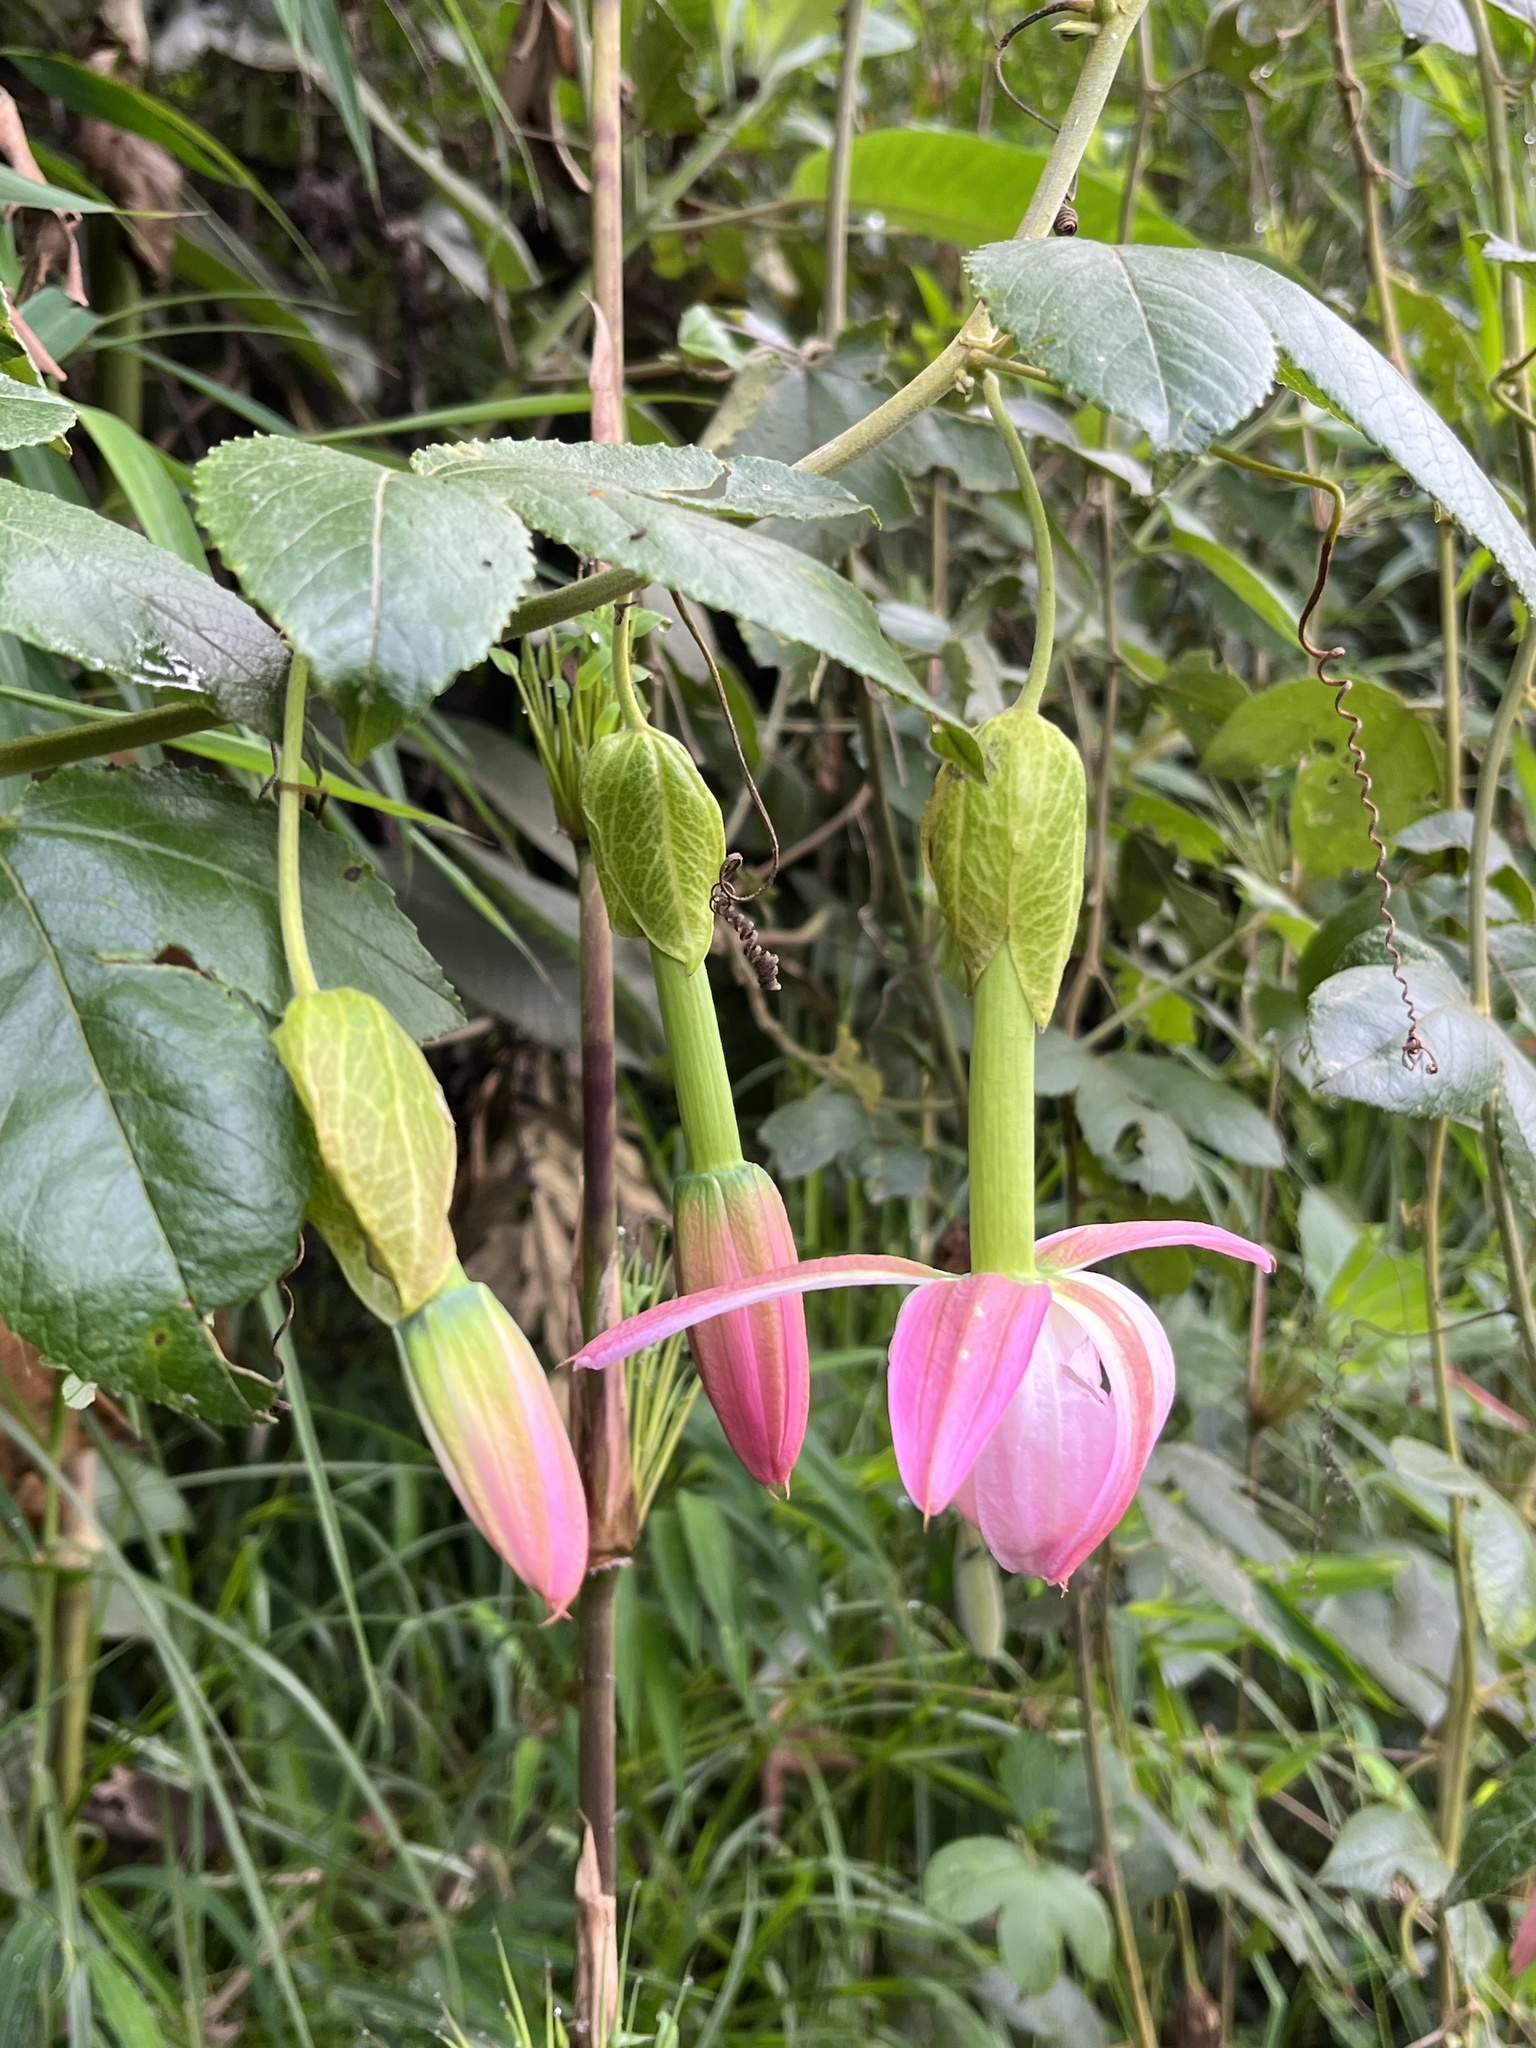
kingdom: Plantae
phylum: Tracheophyta
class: Magnoliopsida
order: Malpighiales
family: Passifloraceae
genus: Passiflora
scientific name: Passiflora tarminiana
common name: Banana poka
